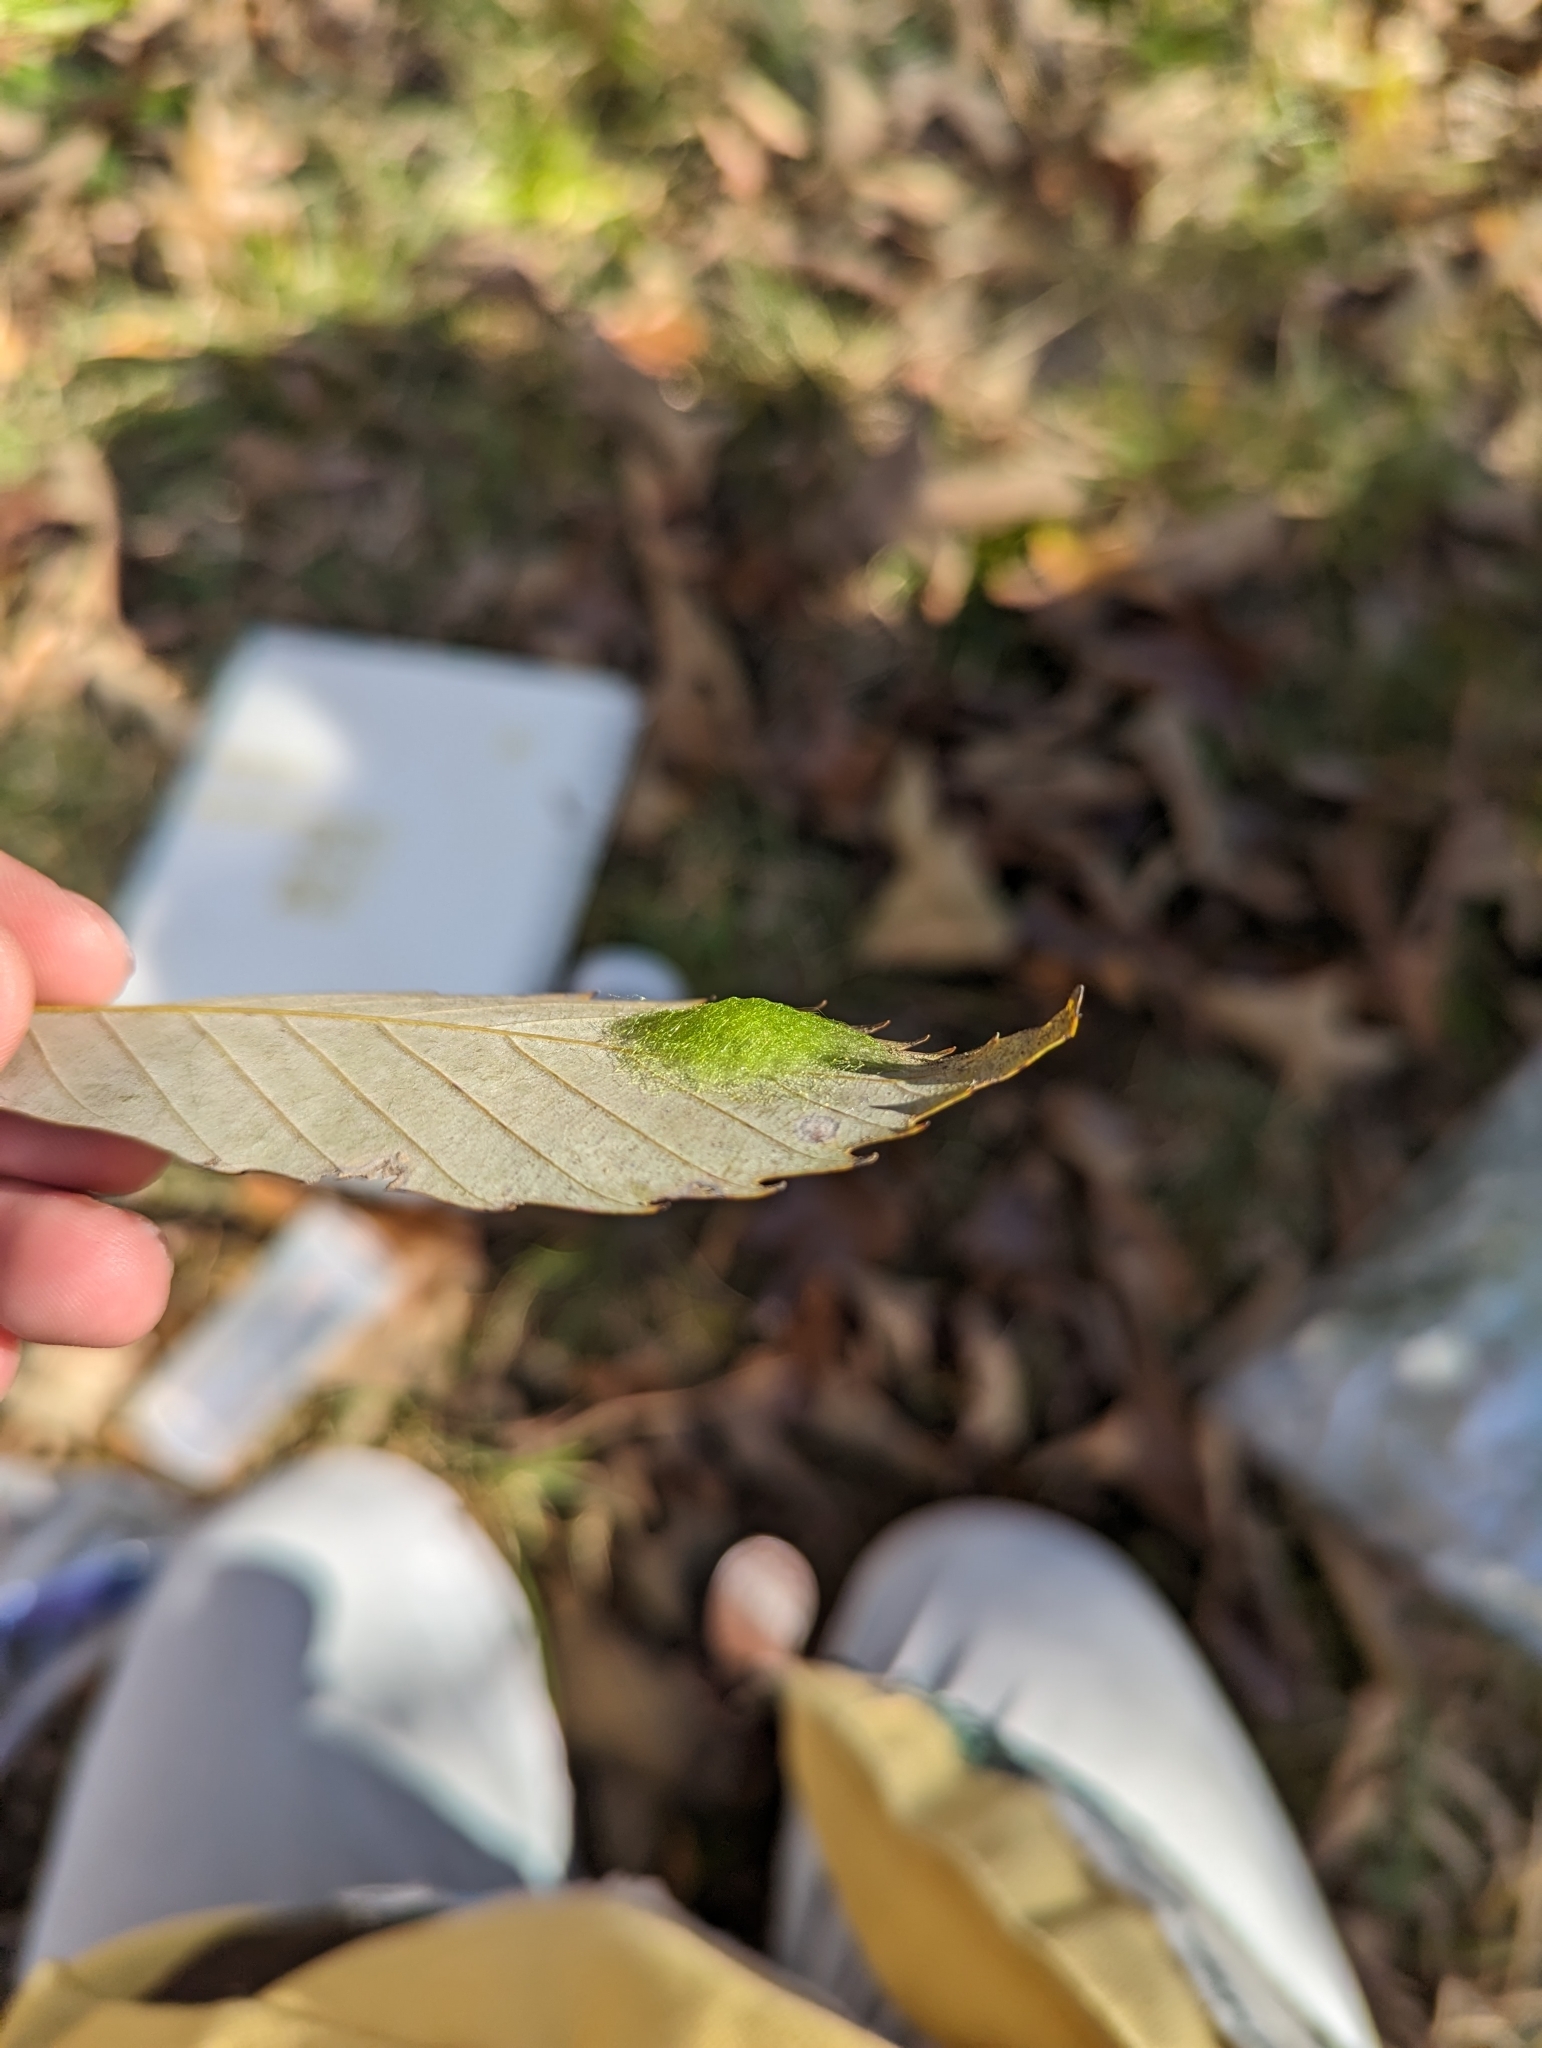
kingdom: Animalia
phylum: Arthropoda
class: Arachnida
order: Araneae
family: Araneidae
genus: Gasteracantha
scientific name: Gasteracantha cancriformis
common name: Orb weavers
